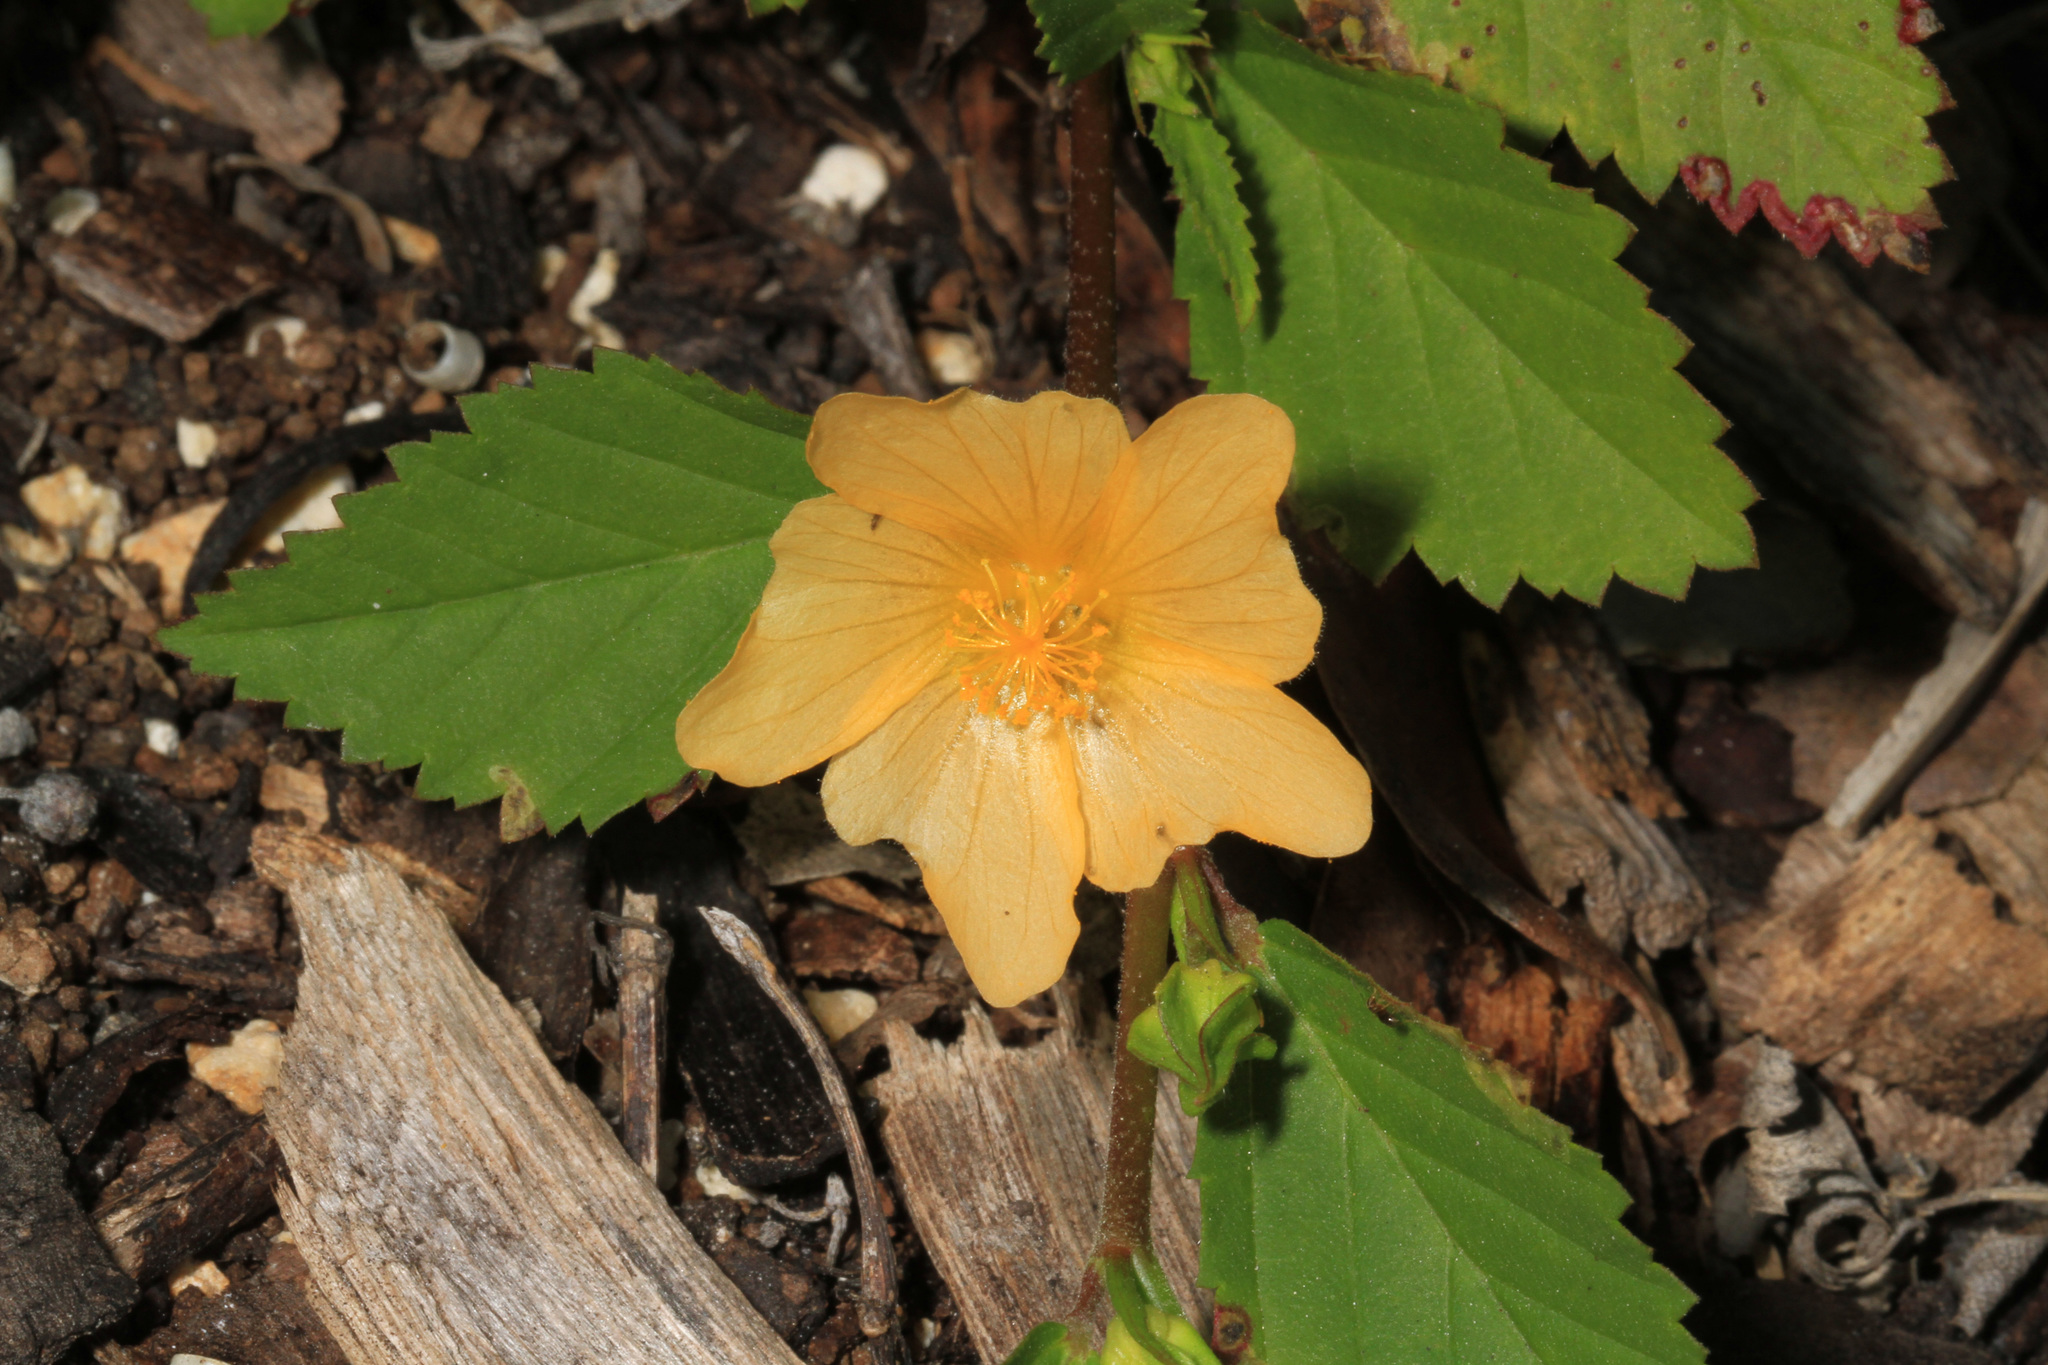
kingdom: Plantae
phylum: Tracheophyta
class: Magnoliopsida
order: Malvales
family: Malvaceae
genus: Sida
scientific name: Sida ulmifolia
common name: Broom weed
